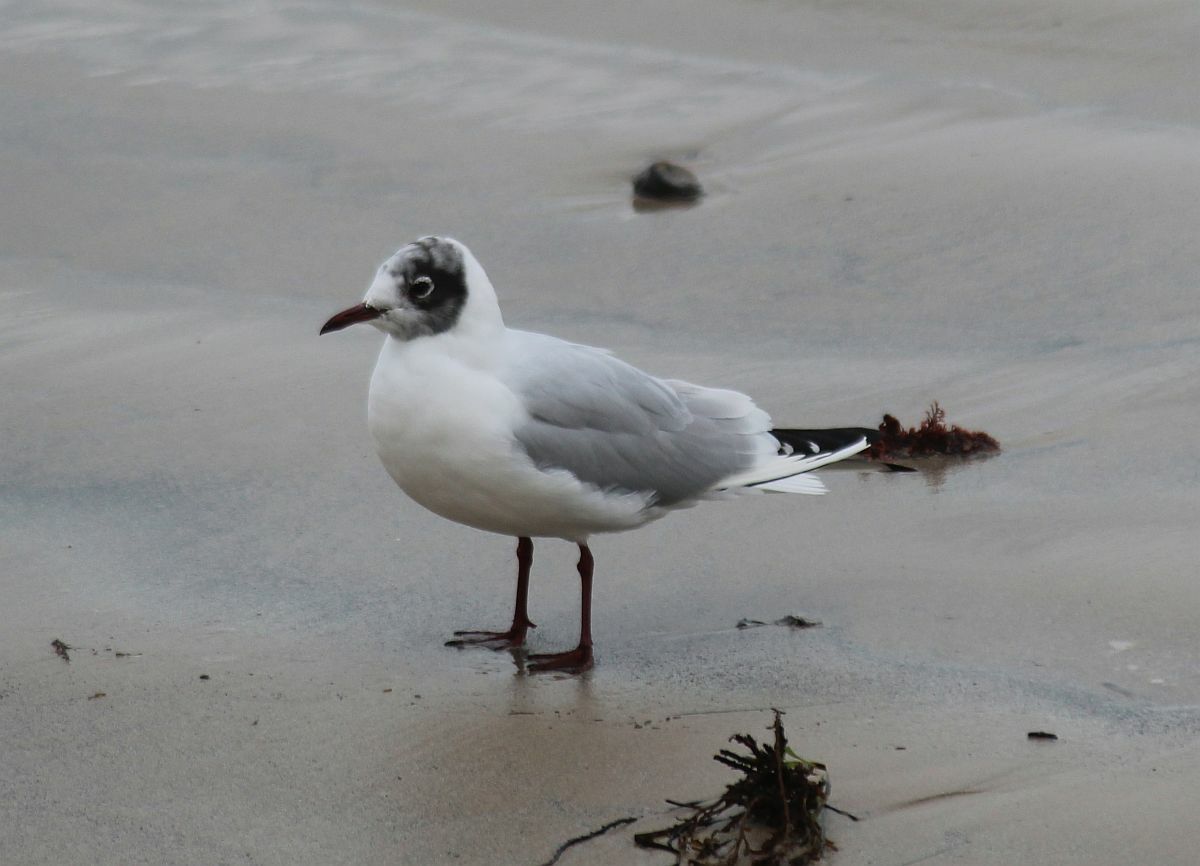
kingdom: Animalia
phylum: Chordata
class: Aves
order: Charadriiformes
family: Laridae
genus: Chroicocephalus
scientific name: Chroicocephalus ridibundus
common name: Black-headed gull
